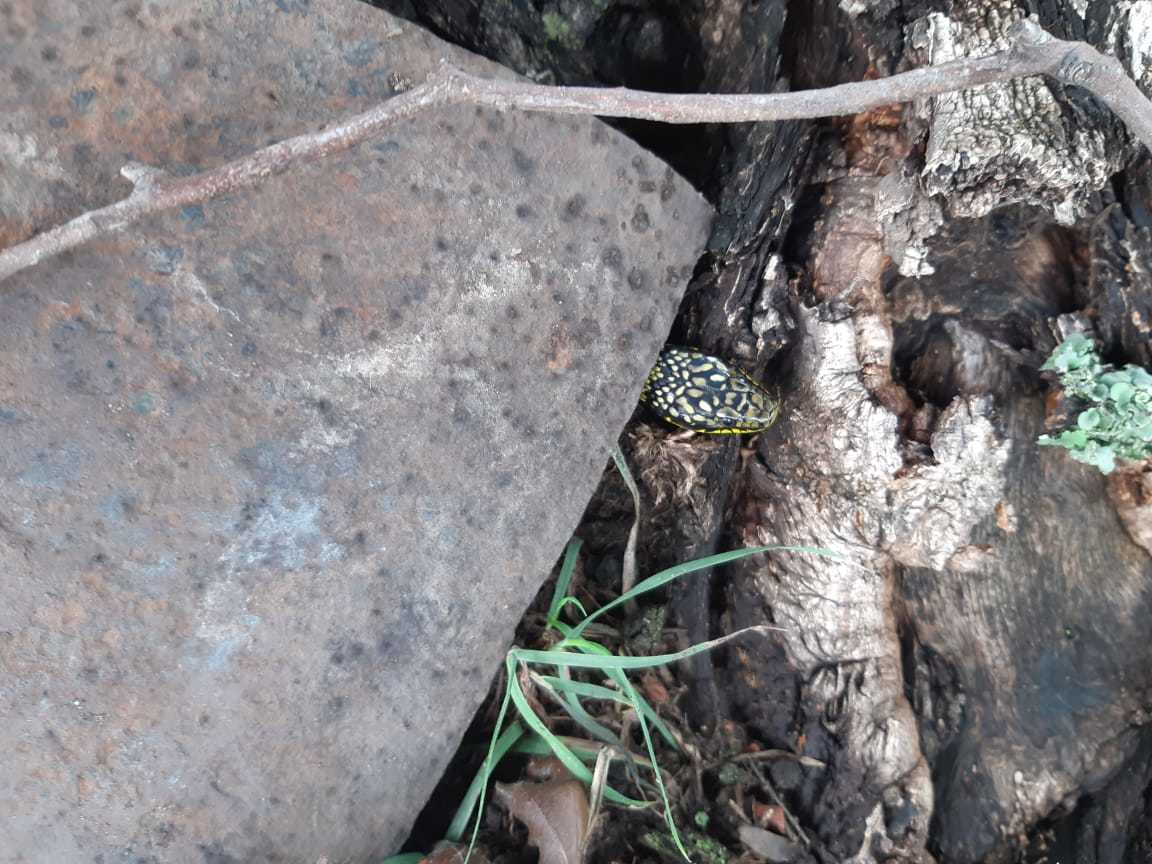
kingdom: Animalia
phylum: Chordata
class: Squamata
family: Colubridae
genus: Erythrolamprus
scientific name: Erythrolamprus poecilogyrus
